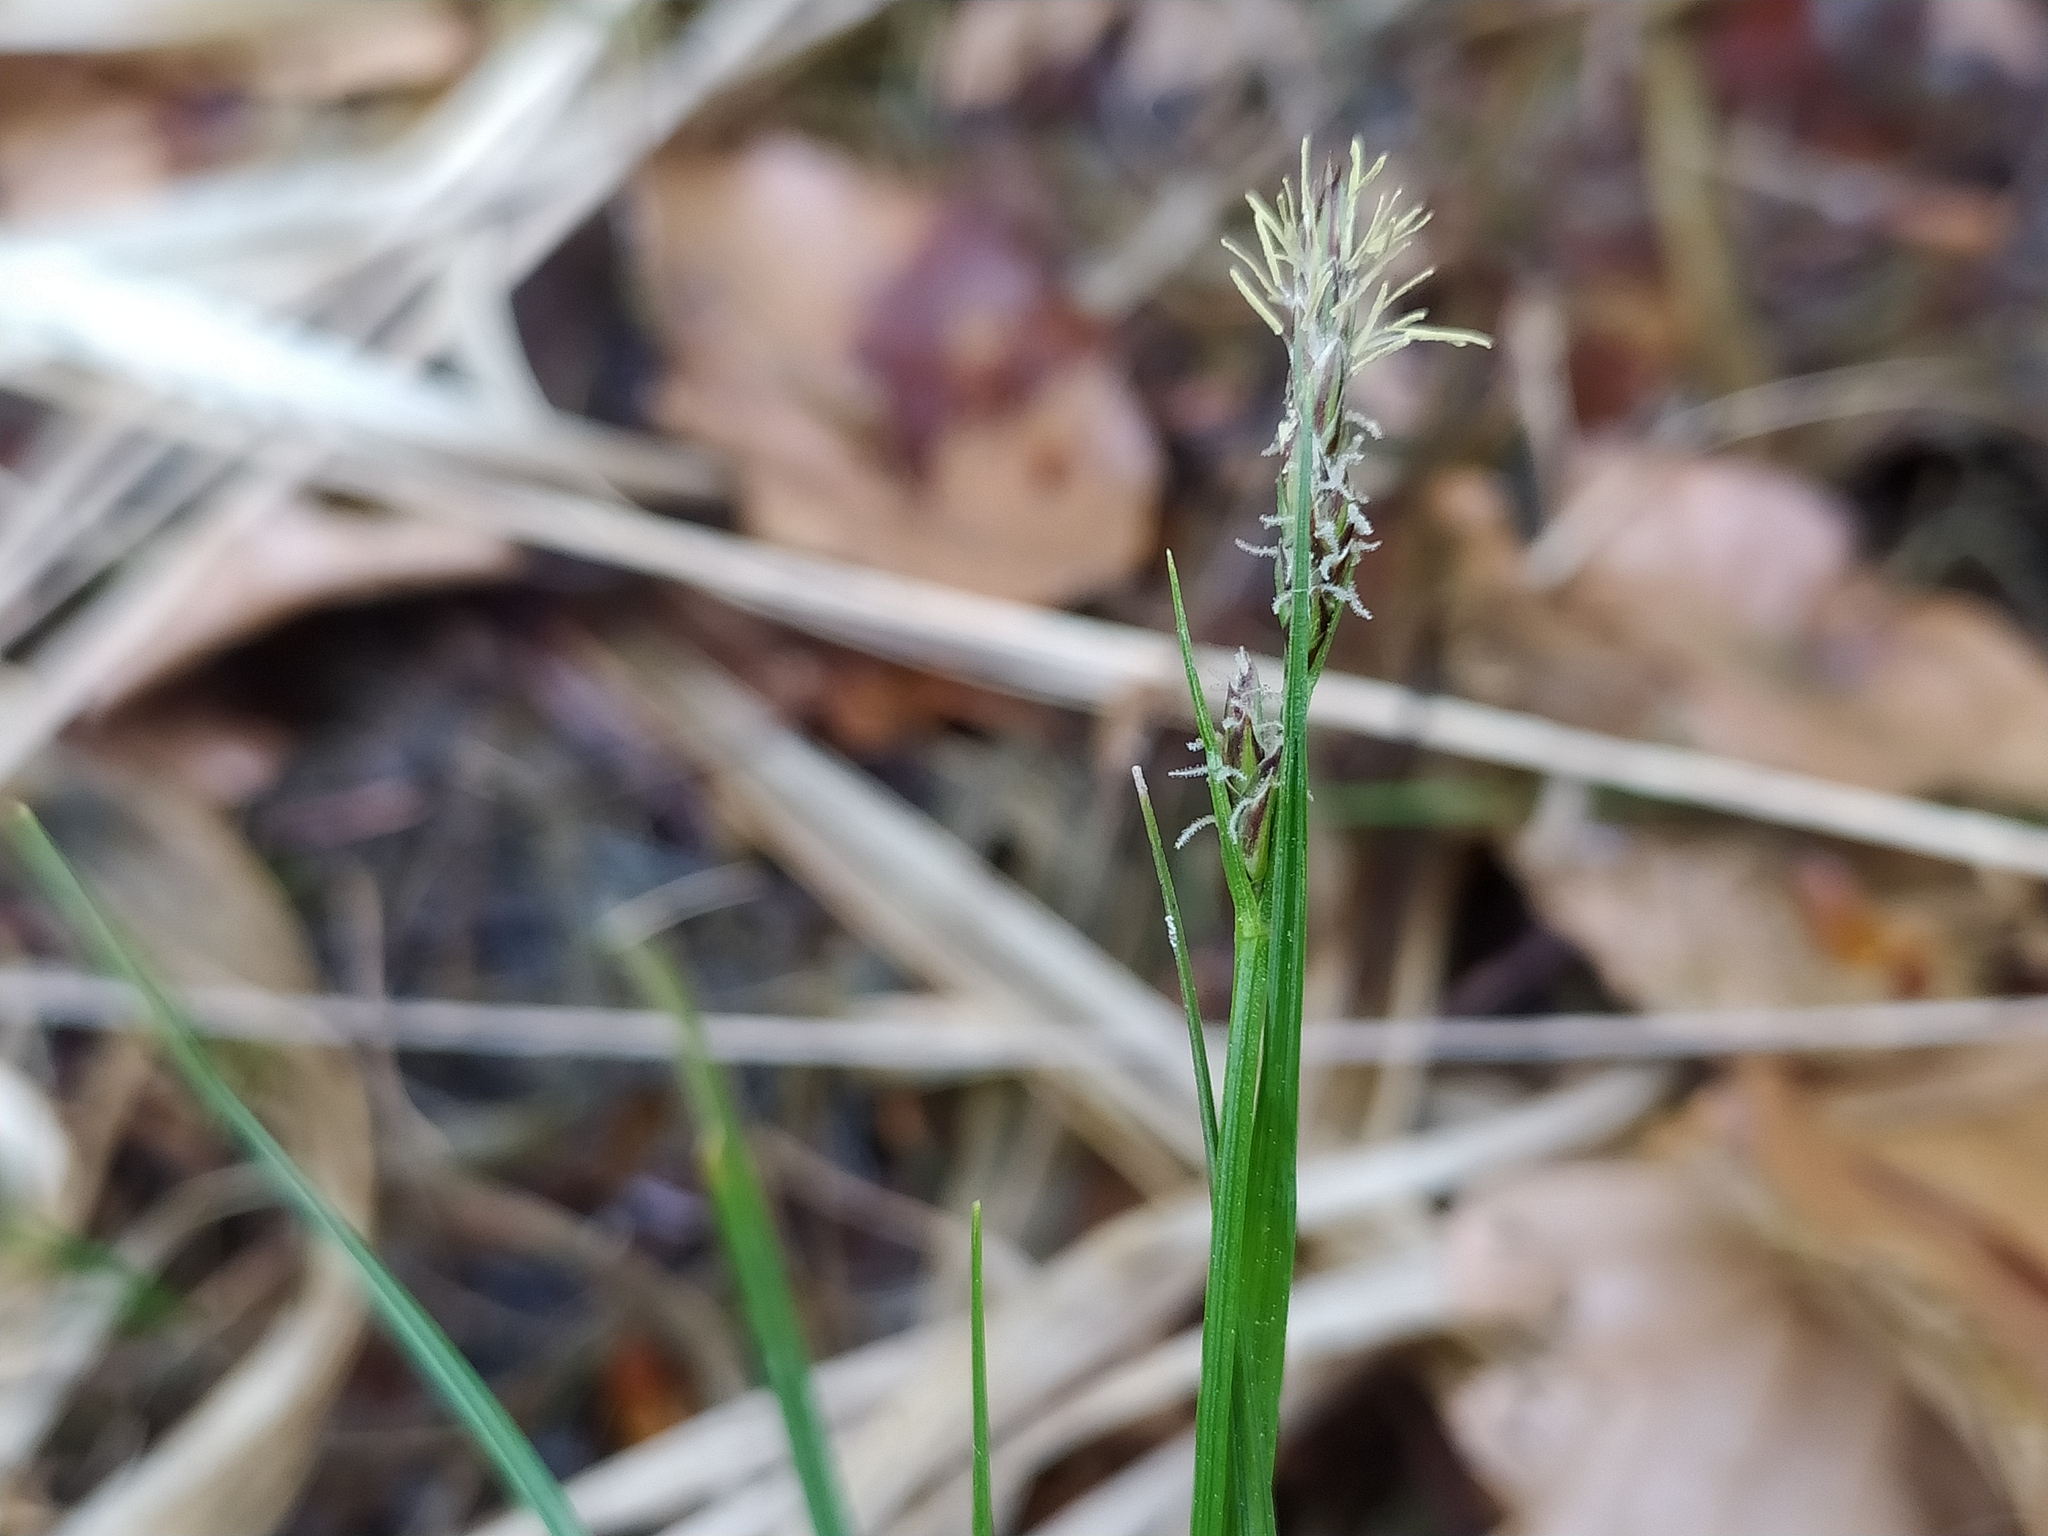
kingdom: Plantae
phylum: Tracheophyta
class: Liliopsida
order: Poales
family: Cyperaceae
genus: Carex
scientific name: Carex pilulifera
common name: Pill sedge
